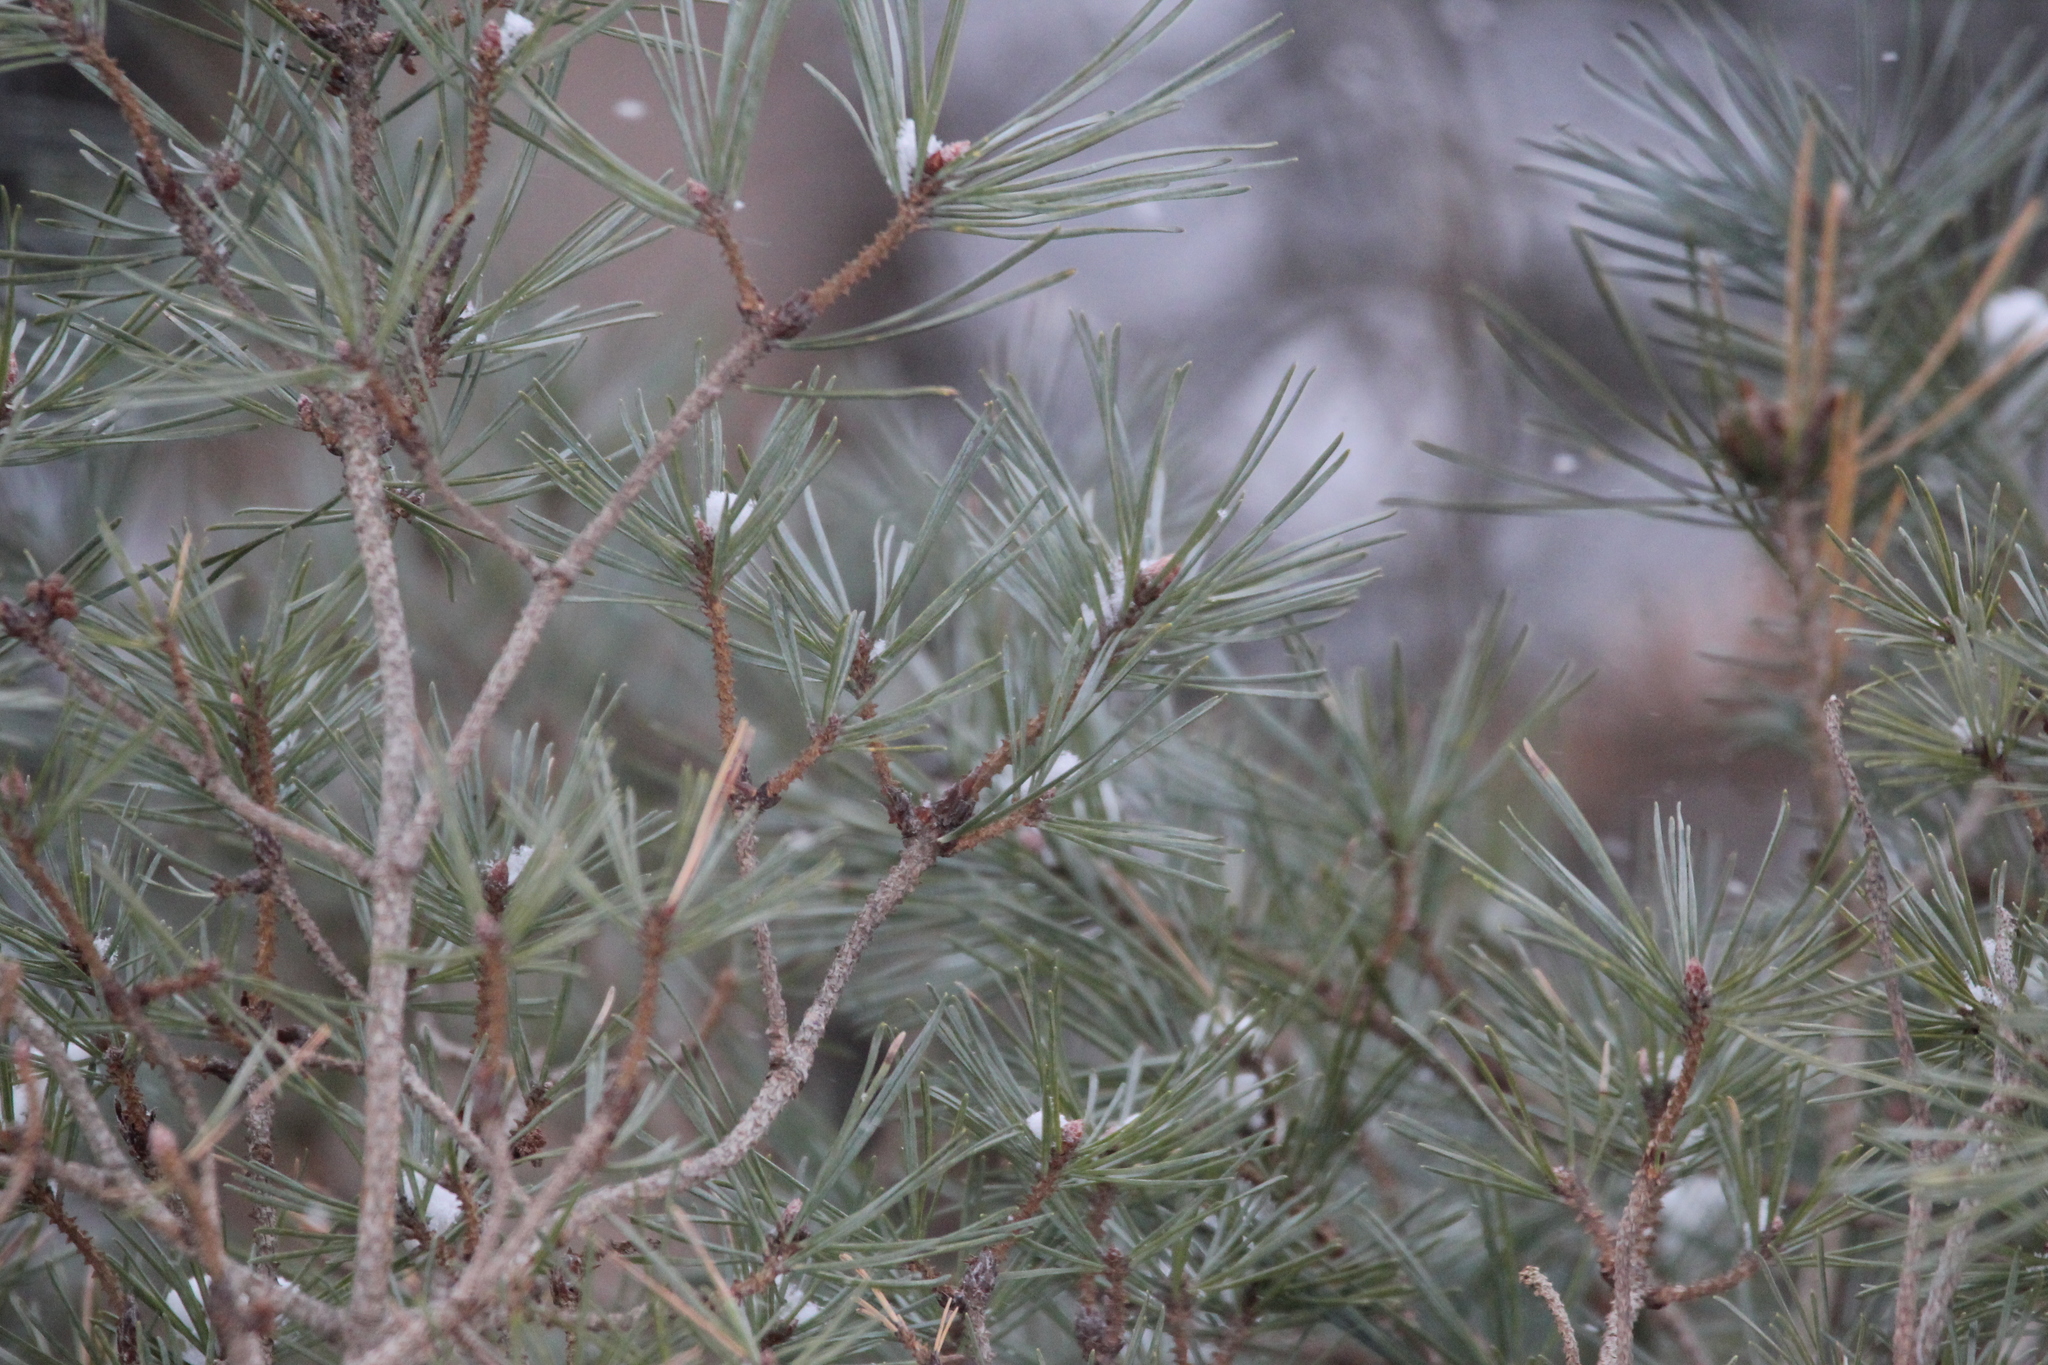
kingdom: Plantae
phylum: Tracheophyta
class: Pinopsida
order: Pinales
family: Pinaceae
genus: Pinus
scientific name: Pinus sylvestris
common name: Scots pine
